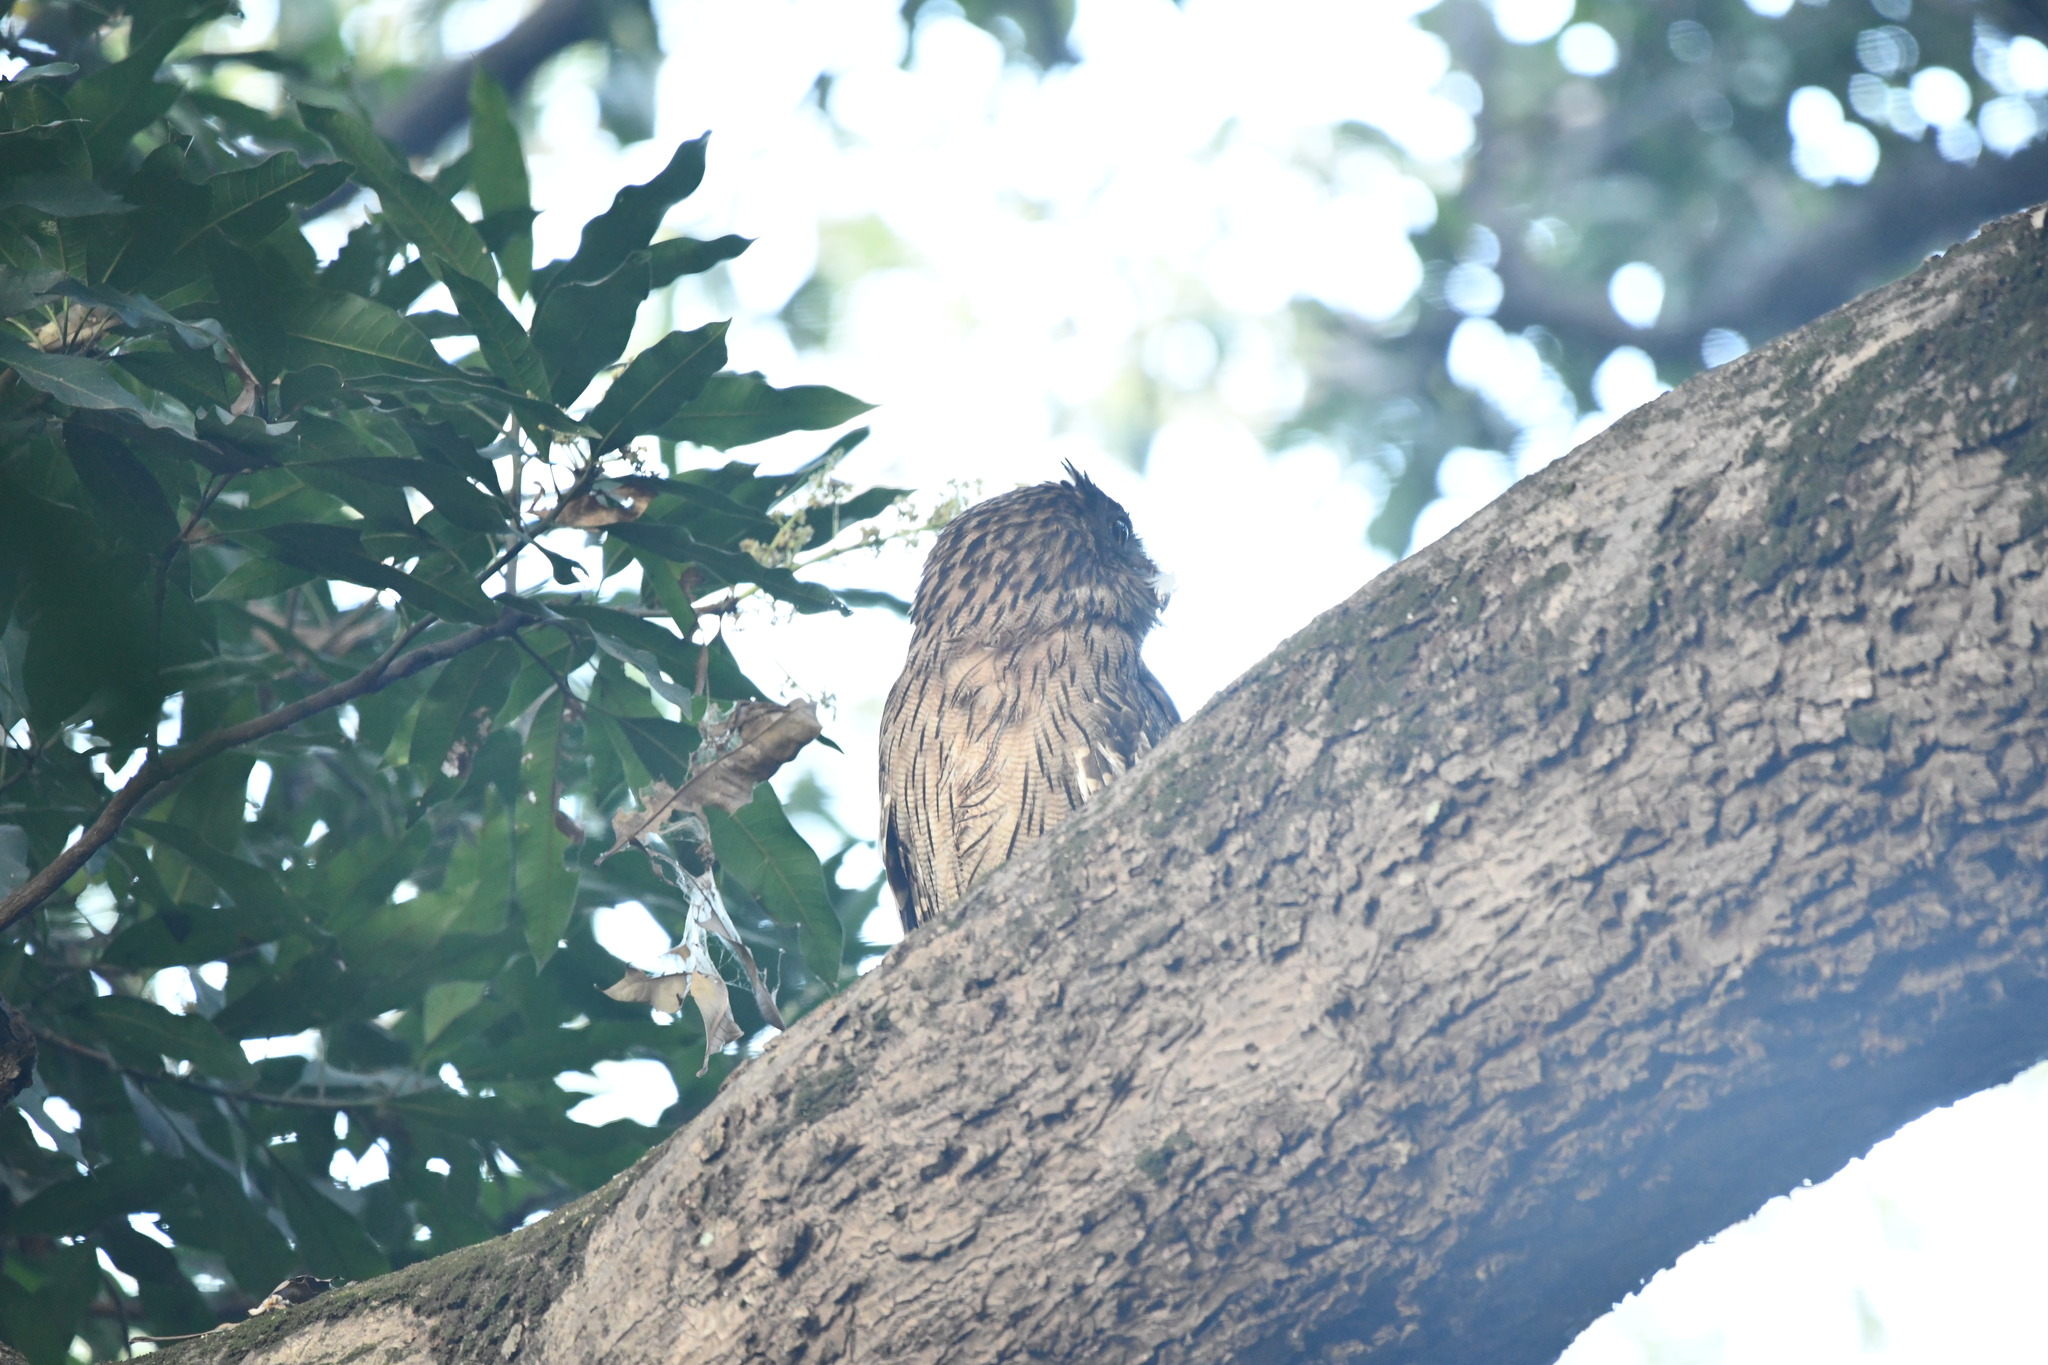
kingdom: Animalia
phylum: Chordata
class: Aves
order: Strigiformes
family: Strigidae
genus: Ketupa
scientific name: Ketupa zeylonensis
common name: Brown fish owl
